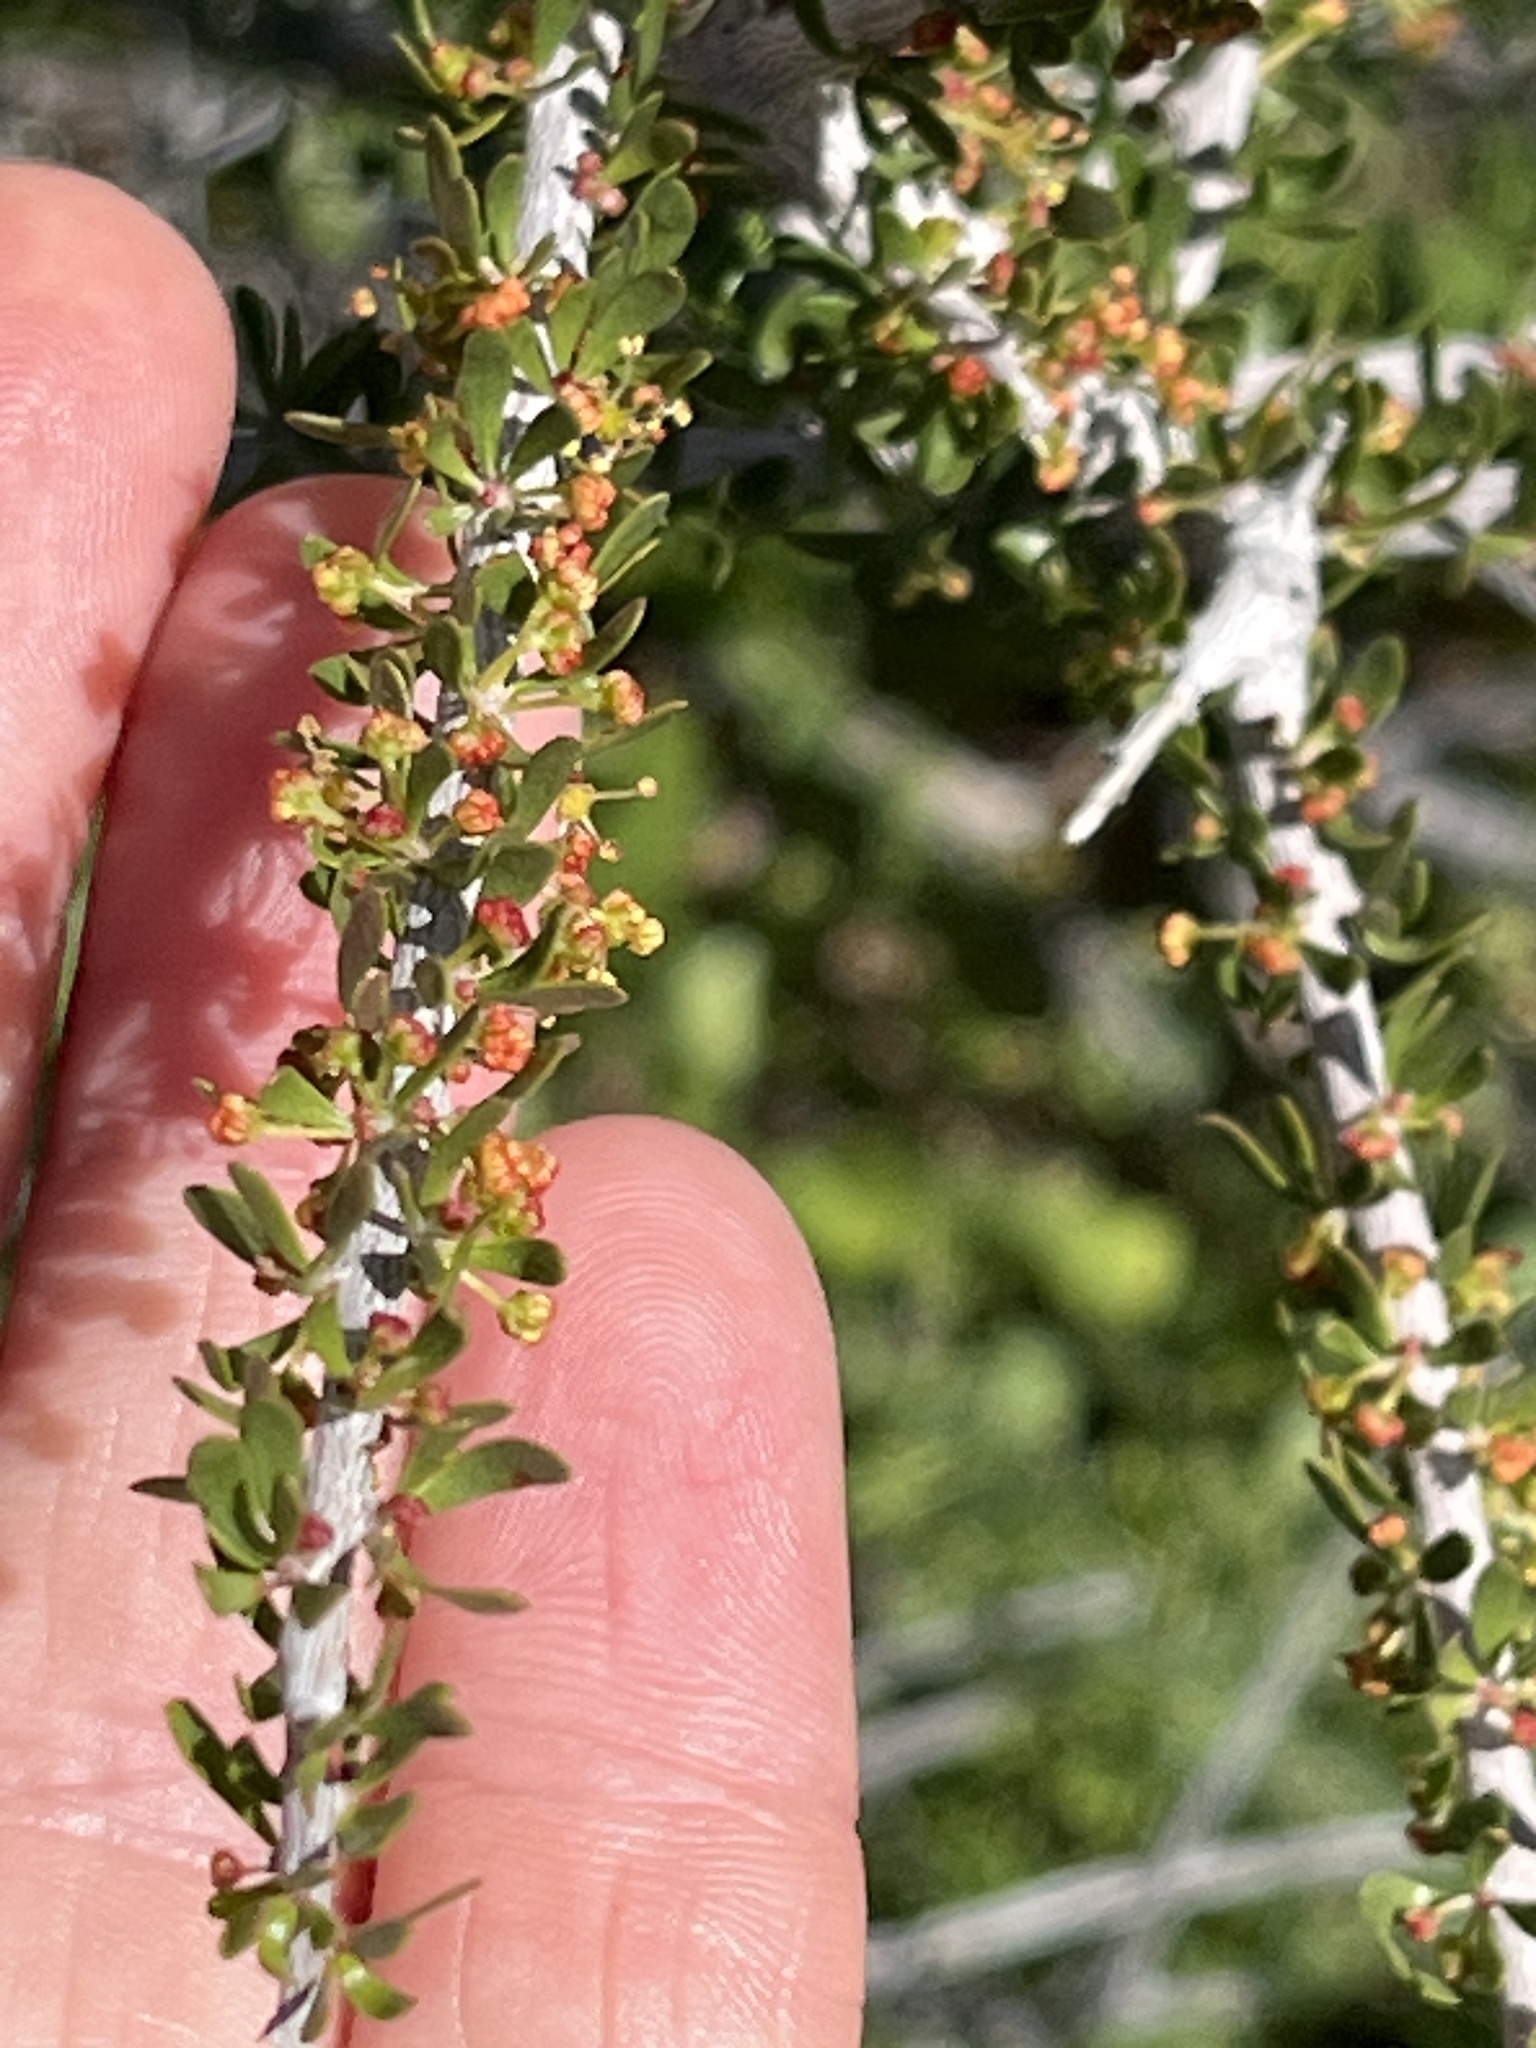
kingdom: Plantae
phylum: Tracheophyta
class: Magnoliopsida
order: Malpighiales
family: Picrodendraceae
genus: Tetracoccus
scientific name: Tetracoccus hallii
